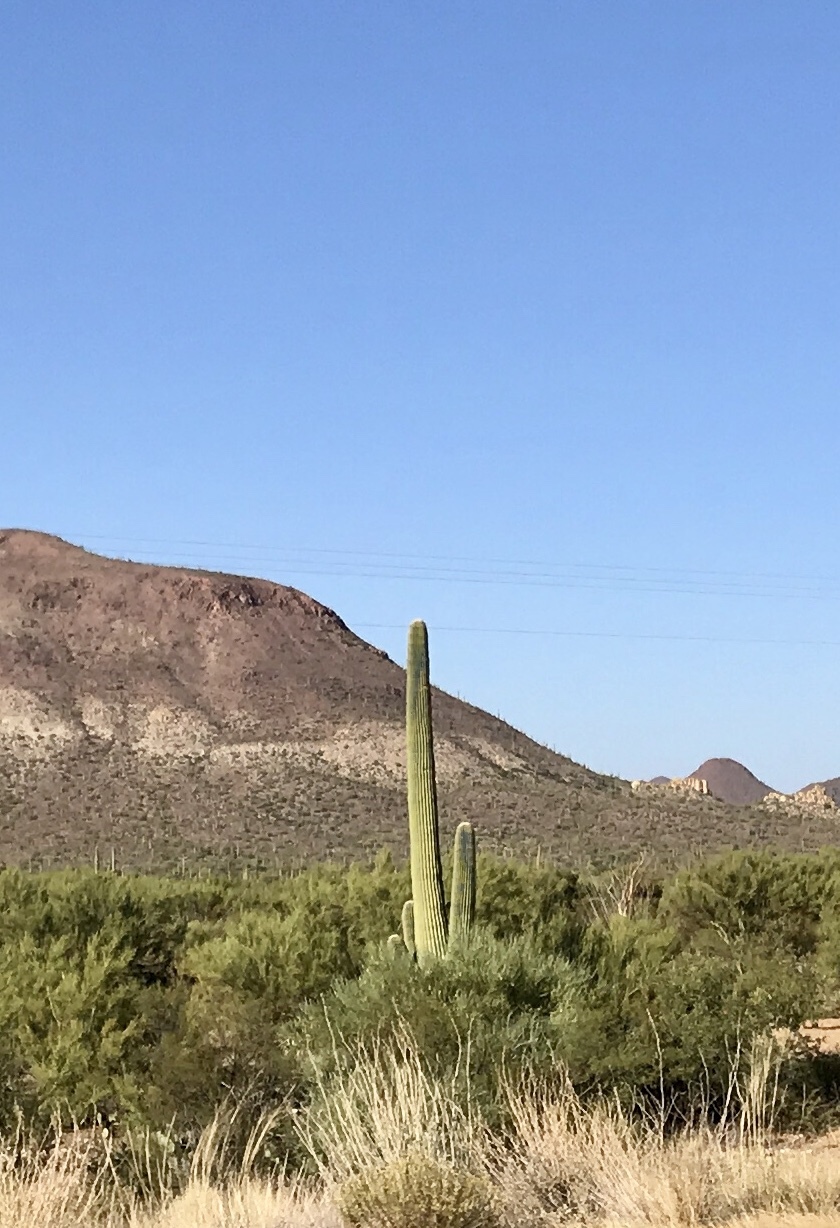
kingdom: Plantae
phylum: Tracheophyta
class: Magnoliopsida
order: Caryophyllales
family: Cactaceae
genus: Carnegiea
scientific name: Carnegiea gigantea
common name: Saguaro
